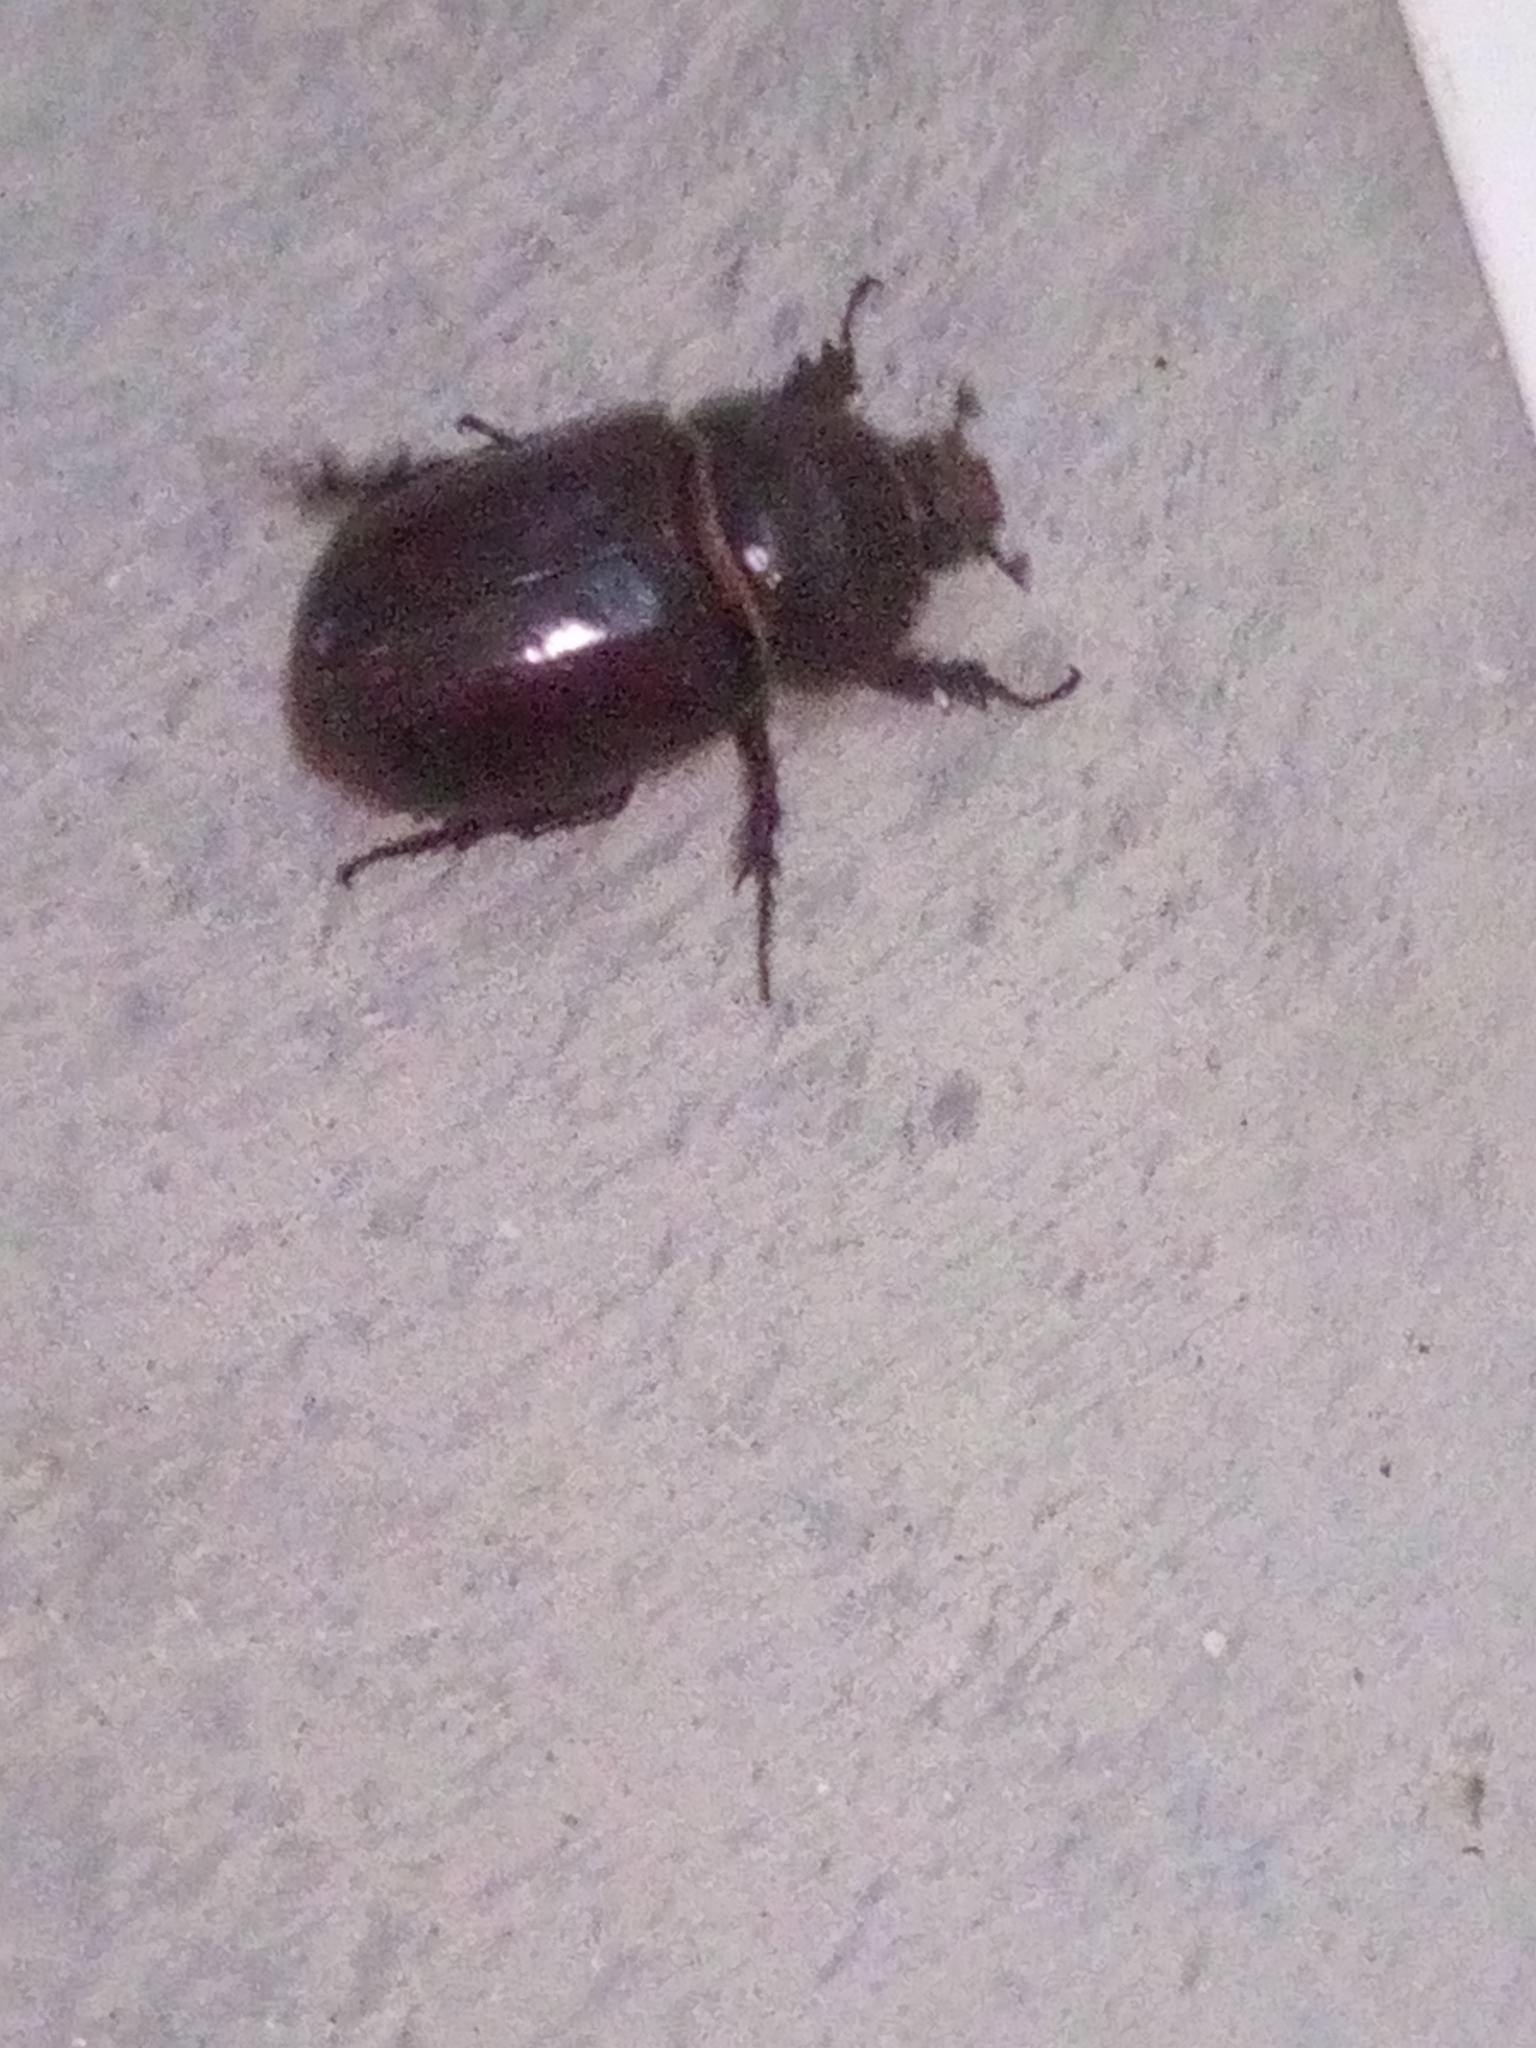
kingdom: Animalia
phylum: Arthropoda
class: Insecta
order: Coleoptera
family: Scarabaeidae
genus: Oryctes
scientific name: Oryctes nasicornis
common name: European rhinoceros beetle
